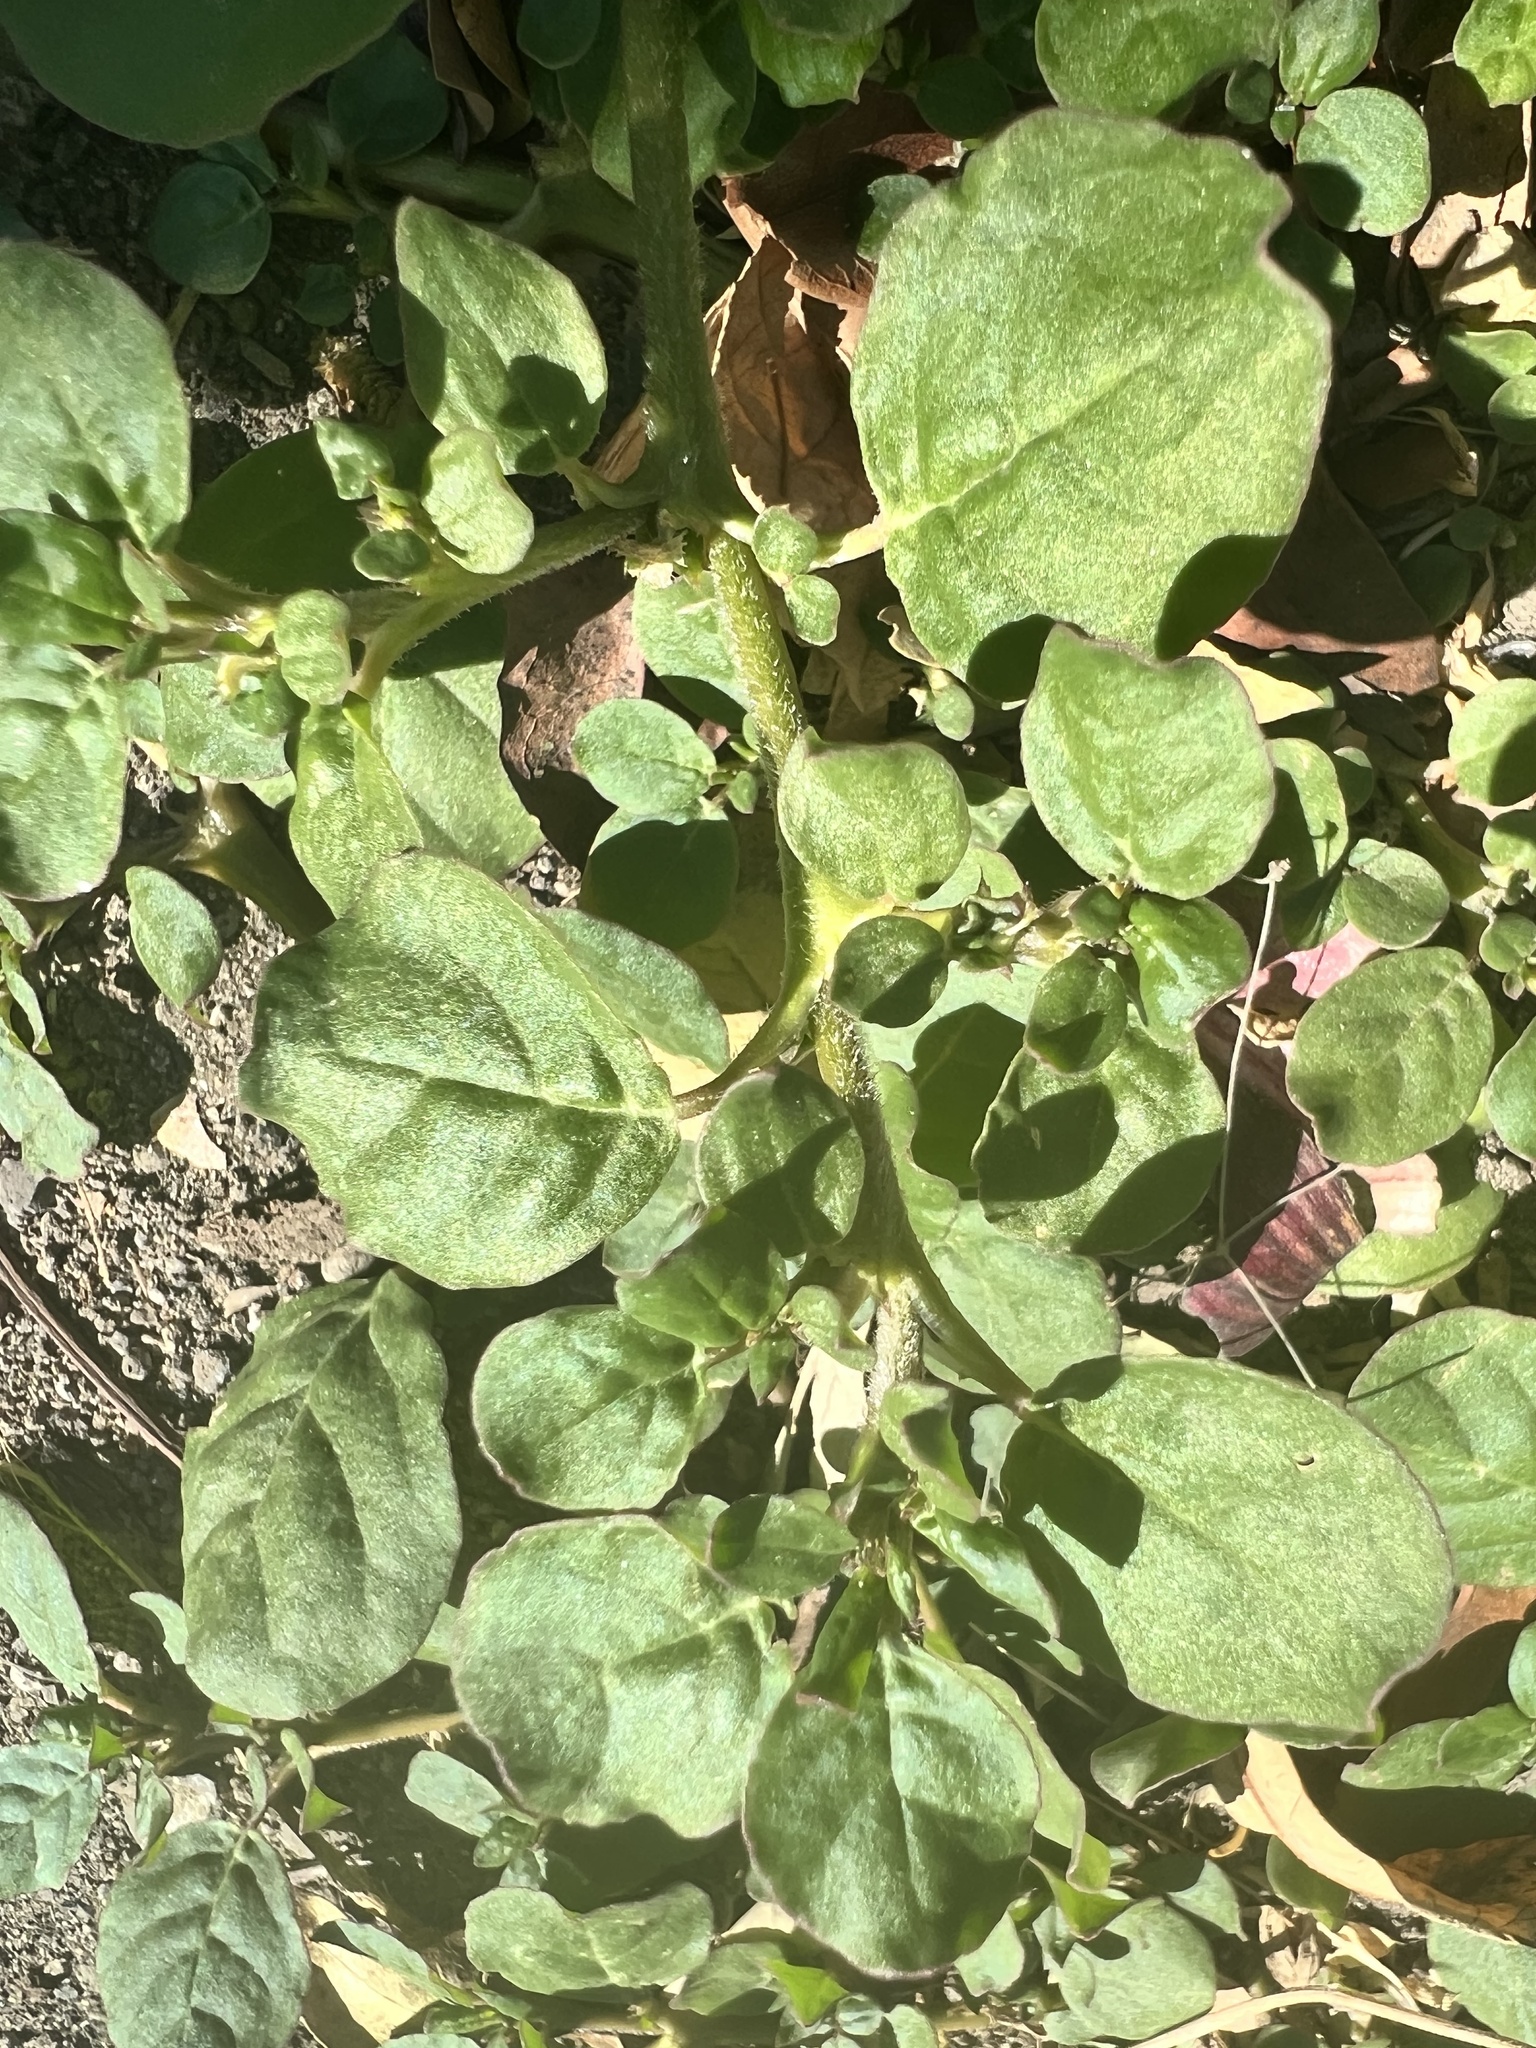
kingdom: Plantae
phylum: Tracheophyta
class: Magnoliopsida
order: Caryophyllales
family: Aizoaceae
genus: Trianthema
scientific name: Trianthema portulacastrum
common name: Desert horsepurslane
